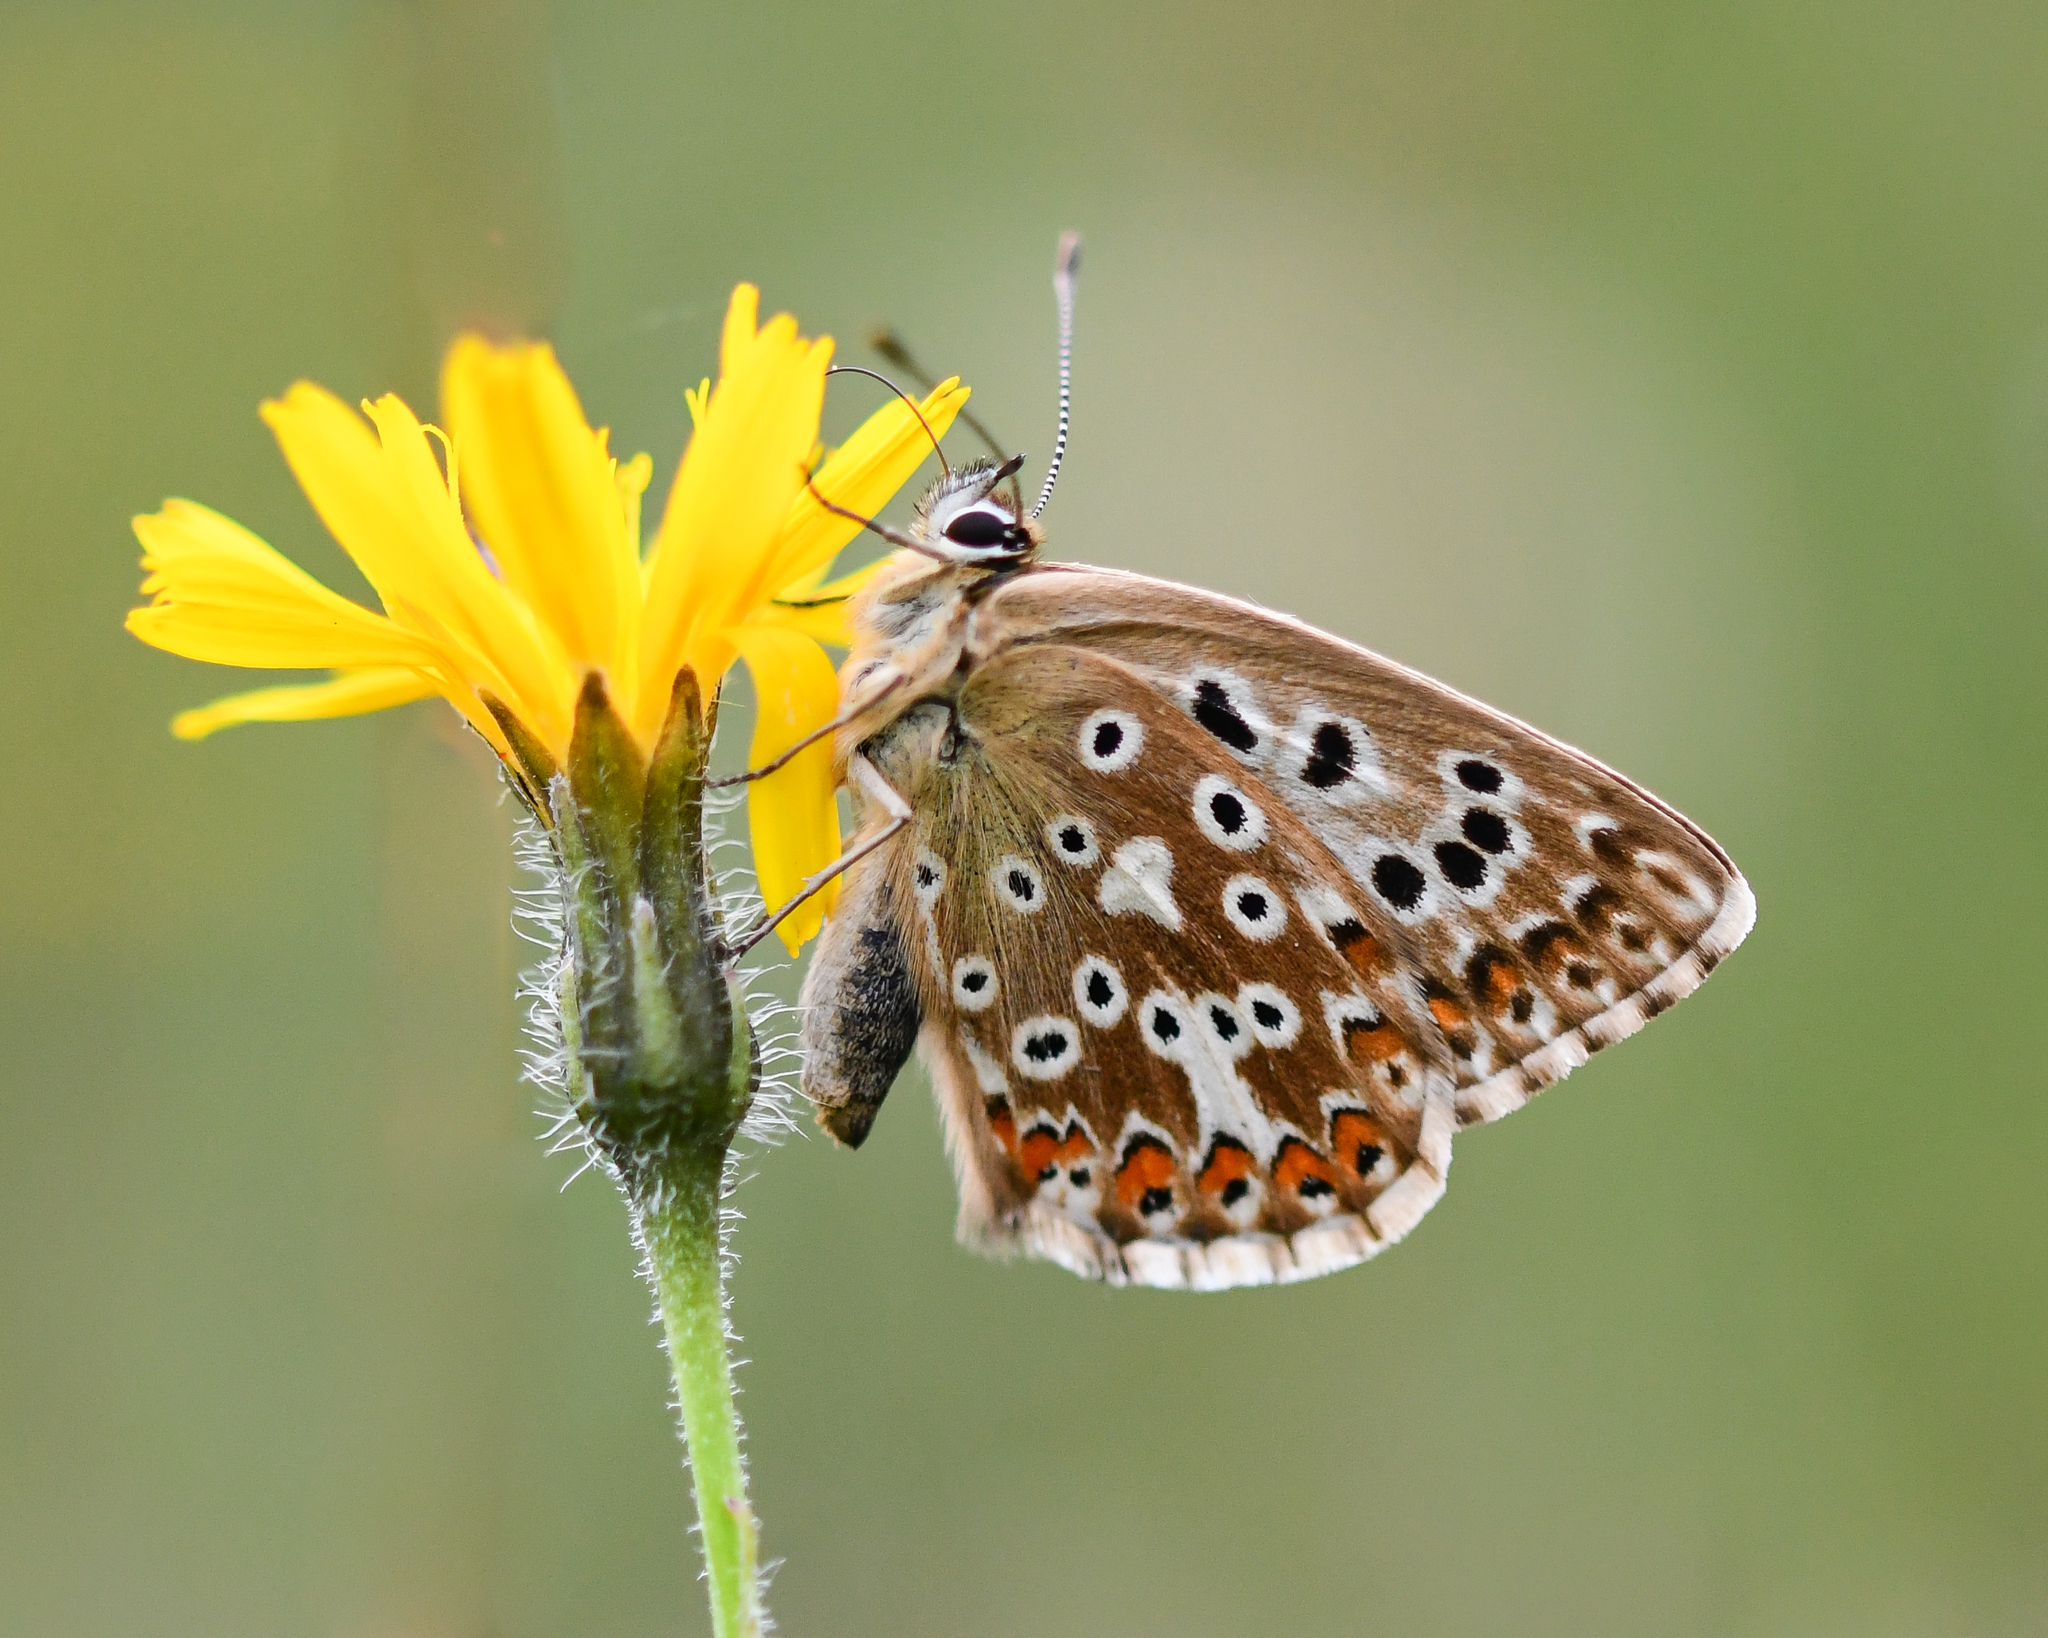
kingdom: Animalia
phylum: Arthropoda
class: Insecta
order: Lepidoptera
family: Lycaenidae
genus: Lysandra
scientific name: Lysandra coridon
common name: Chalkhill blue
